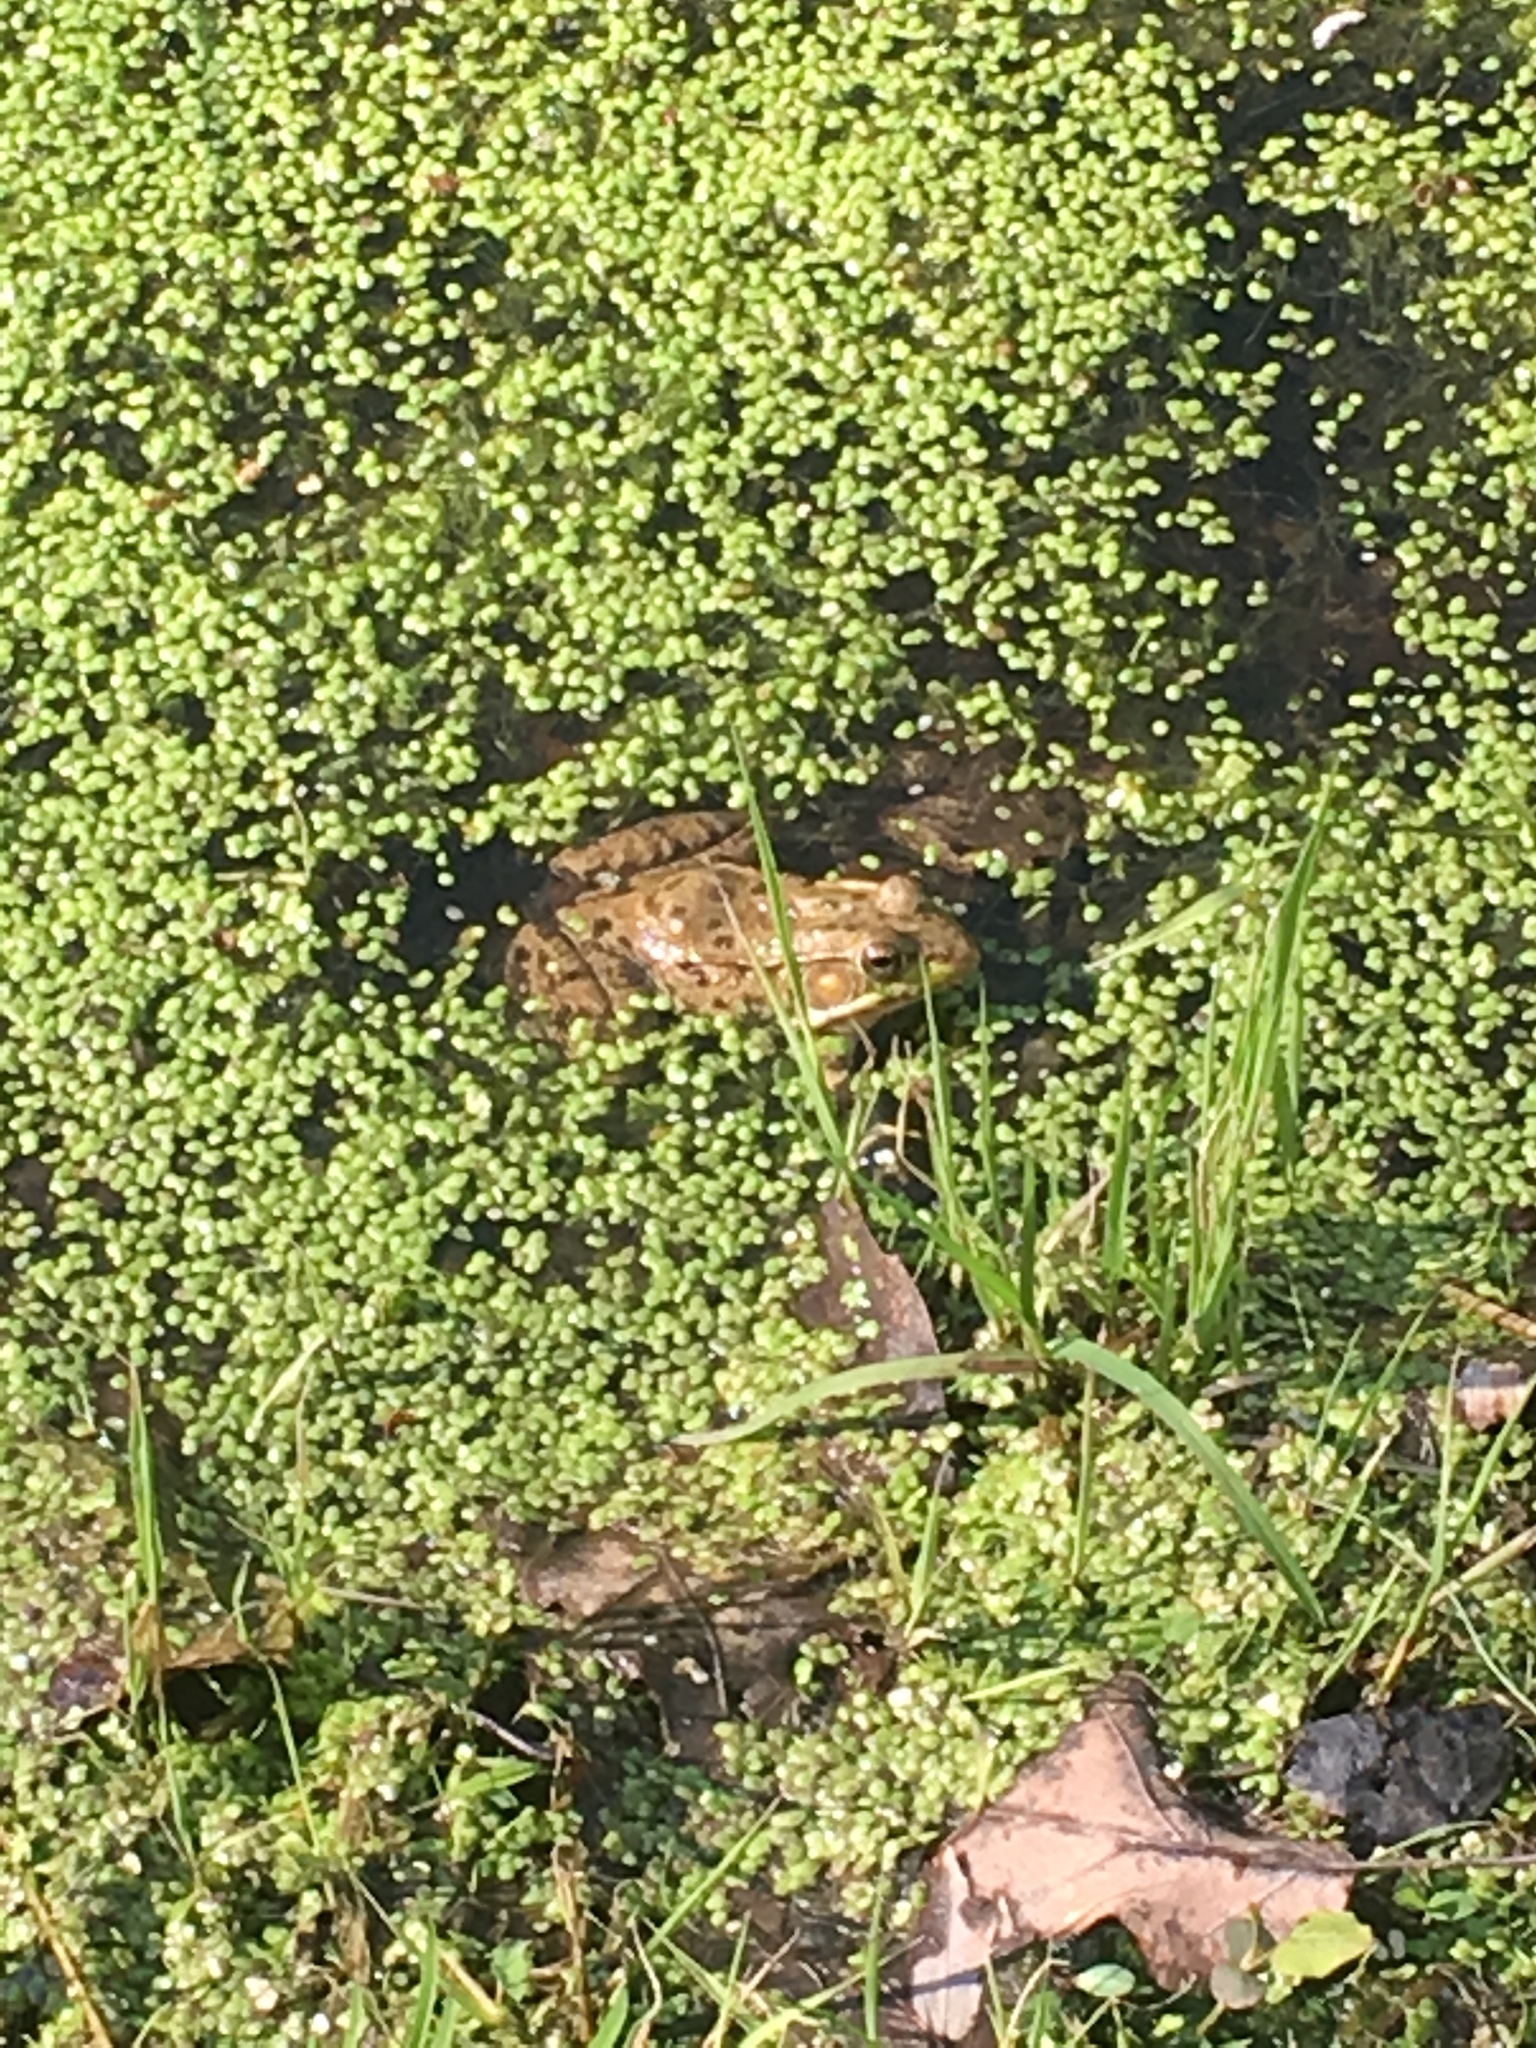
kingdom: Animalia
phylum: Chordata
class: Amphibia
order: Anura
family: Ranidae
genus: Lithobates
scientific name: Lithobates clamitans
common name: Green frog
